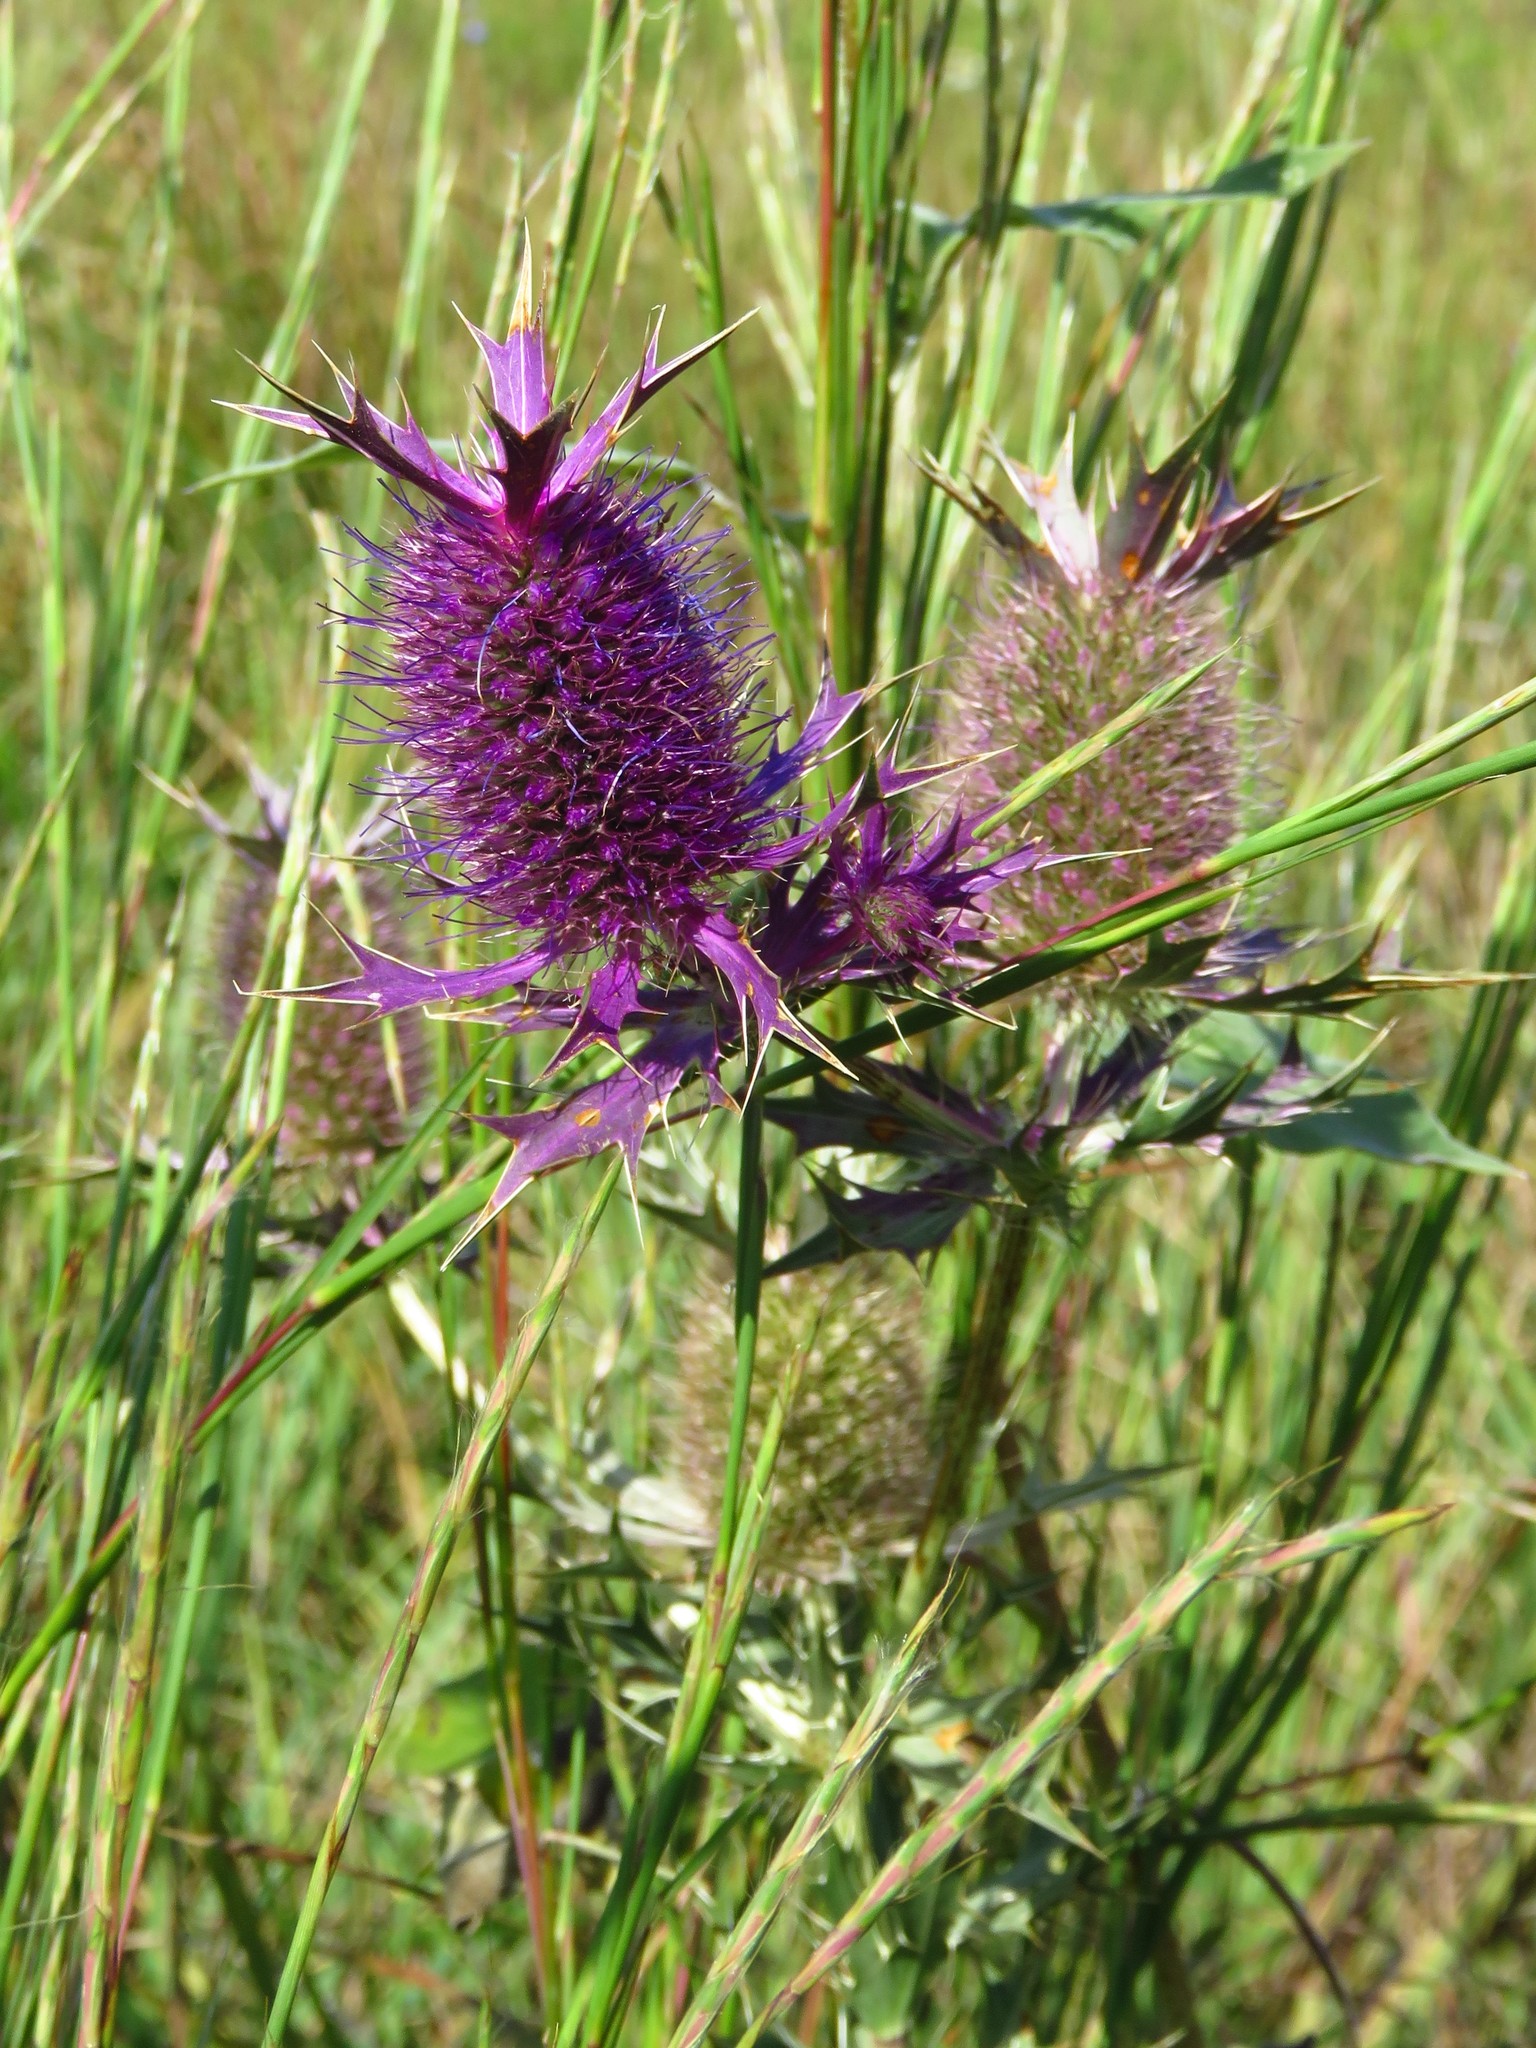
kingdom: Plantae
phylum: Tracheophyta
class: Magnoliopsida
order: Apiales
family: Apiaceae
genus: Eryngium
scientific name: Eryngium leavenworthii
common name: Leavenworth's eryngo
